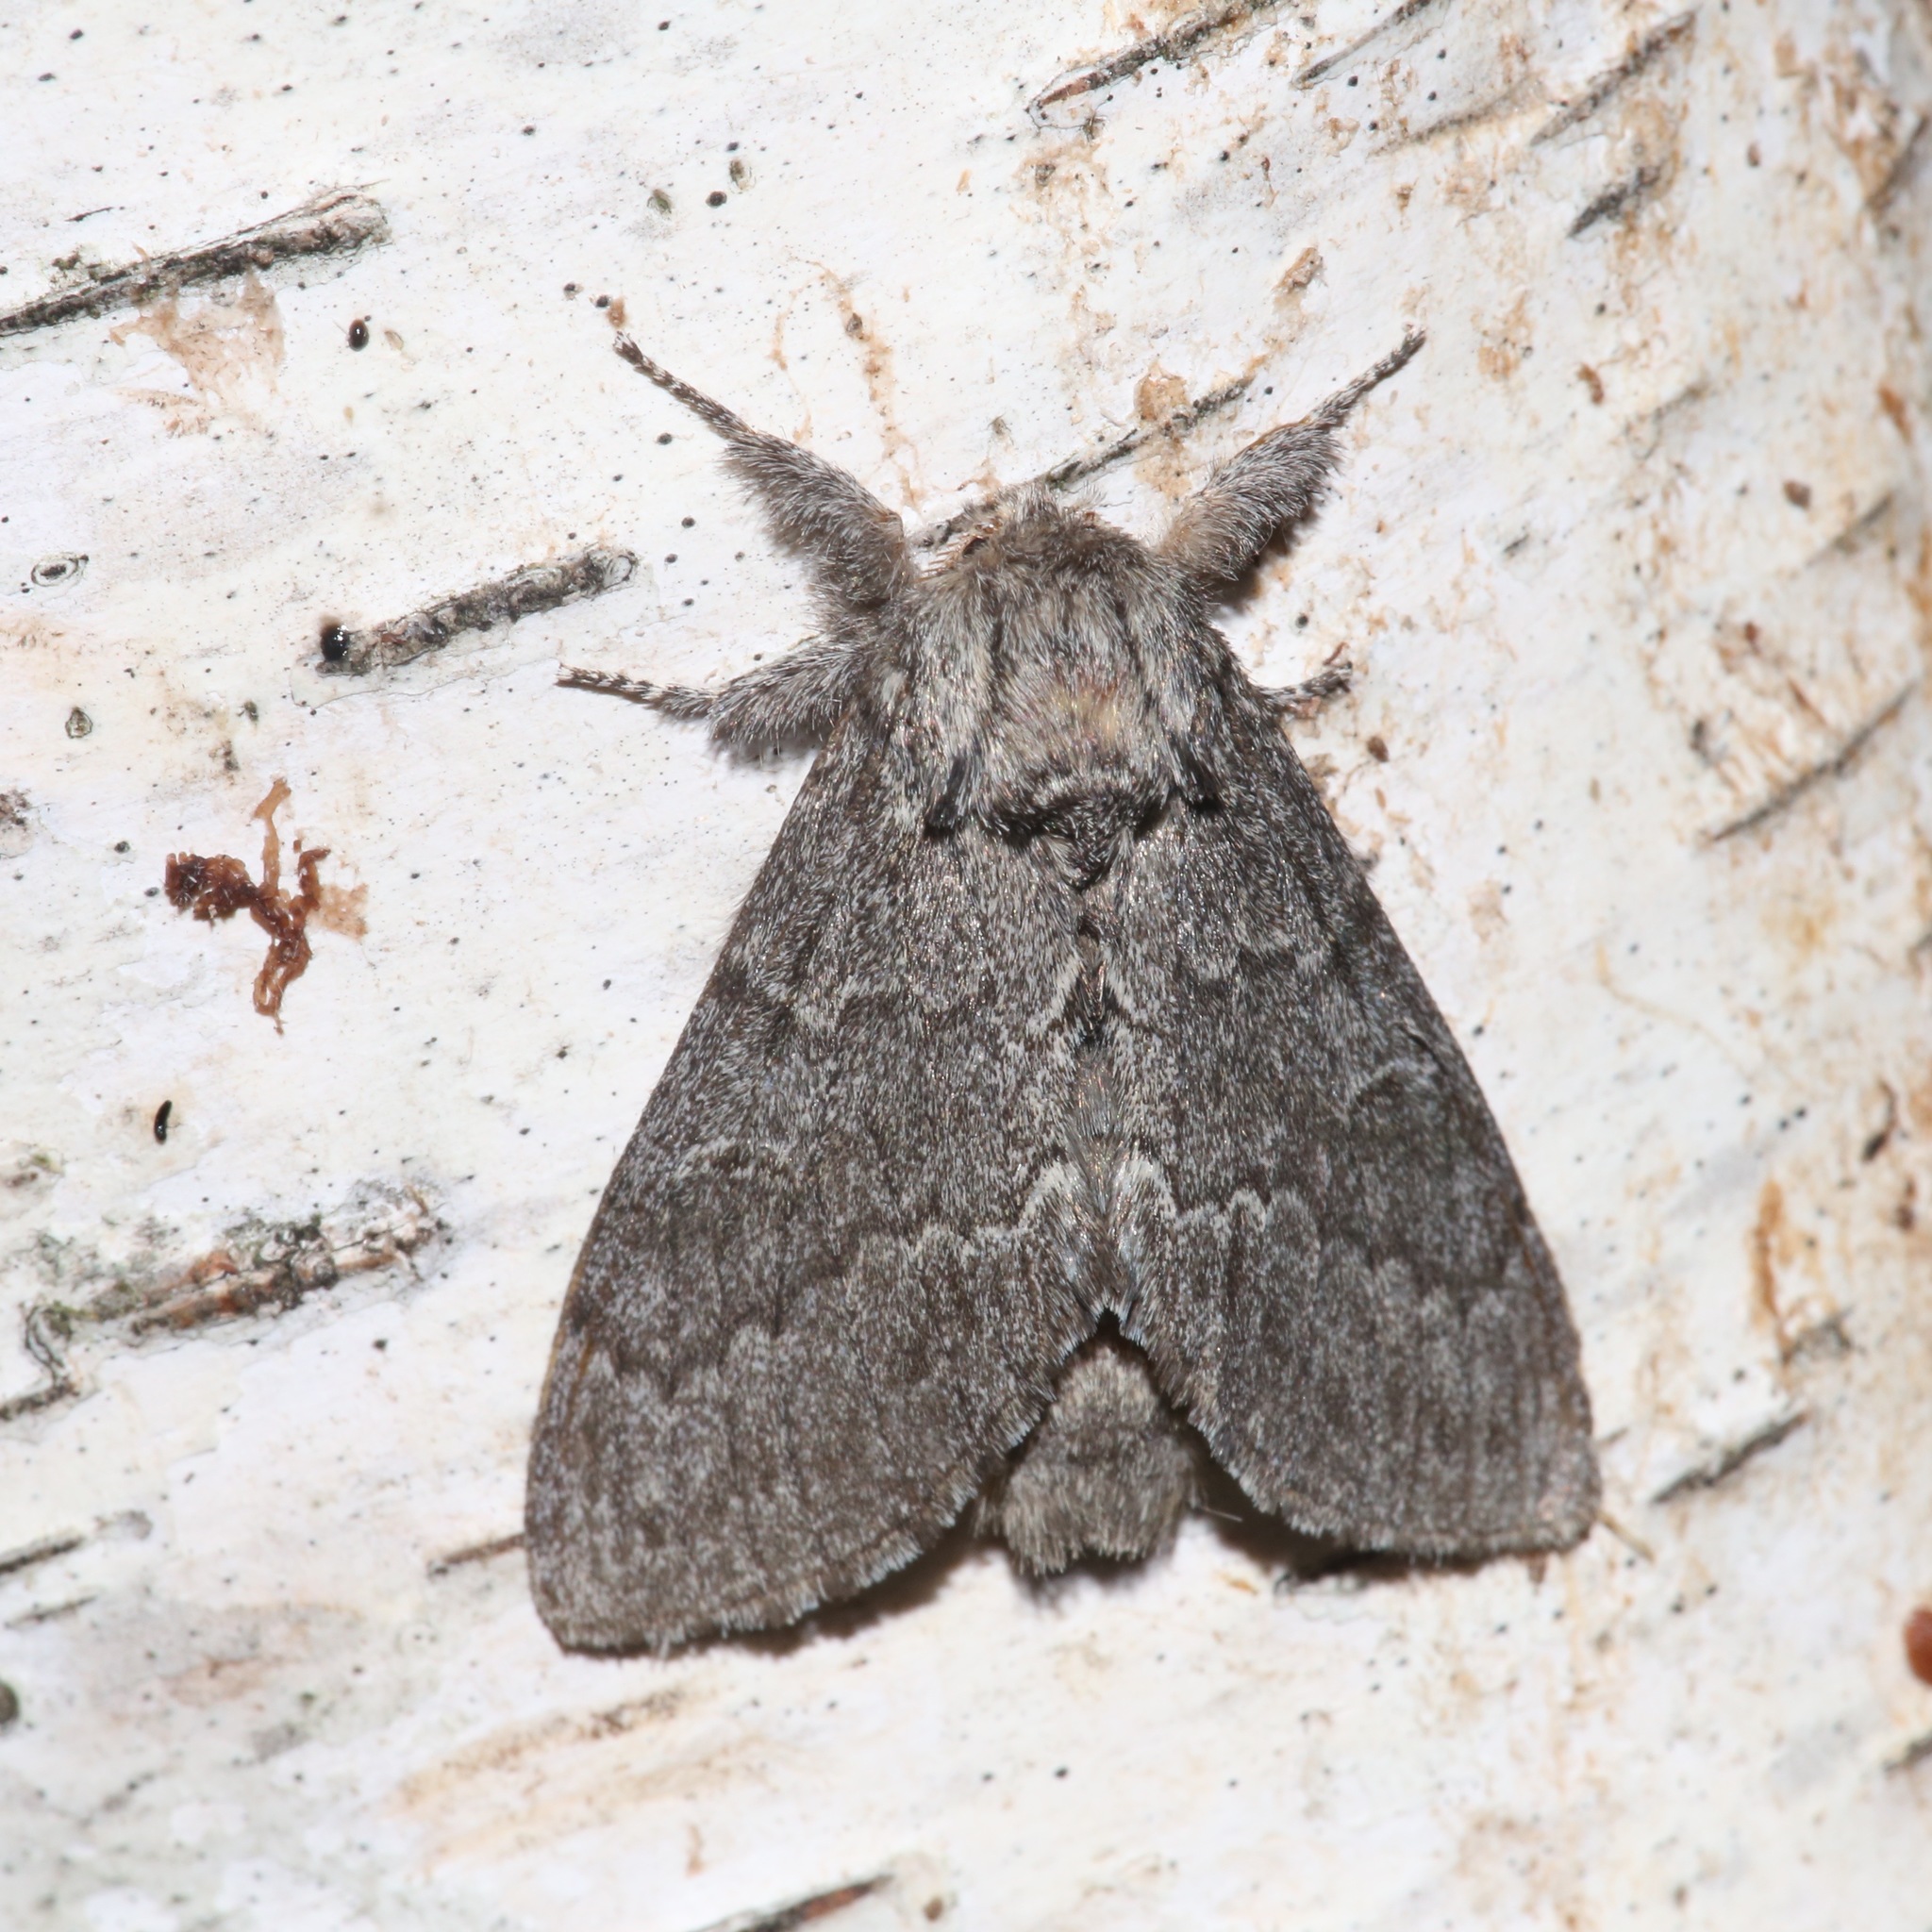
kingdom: Animalia
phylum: Arthropoda
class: Insecta
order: Lepidoptera
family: Notodontidae
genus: Notodonta
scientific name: Notodonta torva
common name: Large dark prominent
